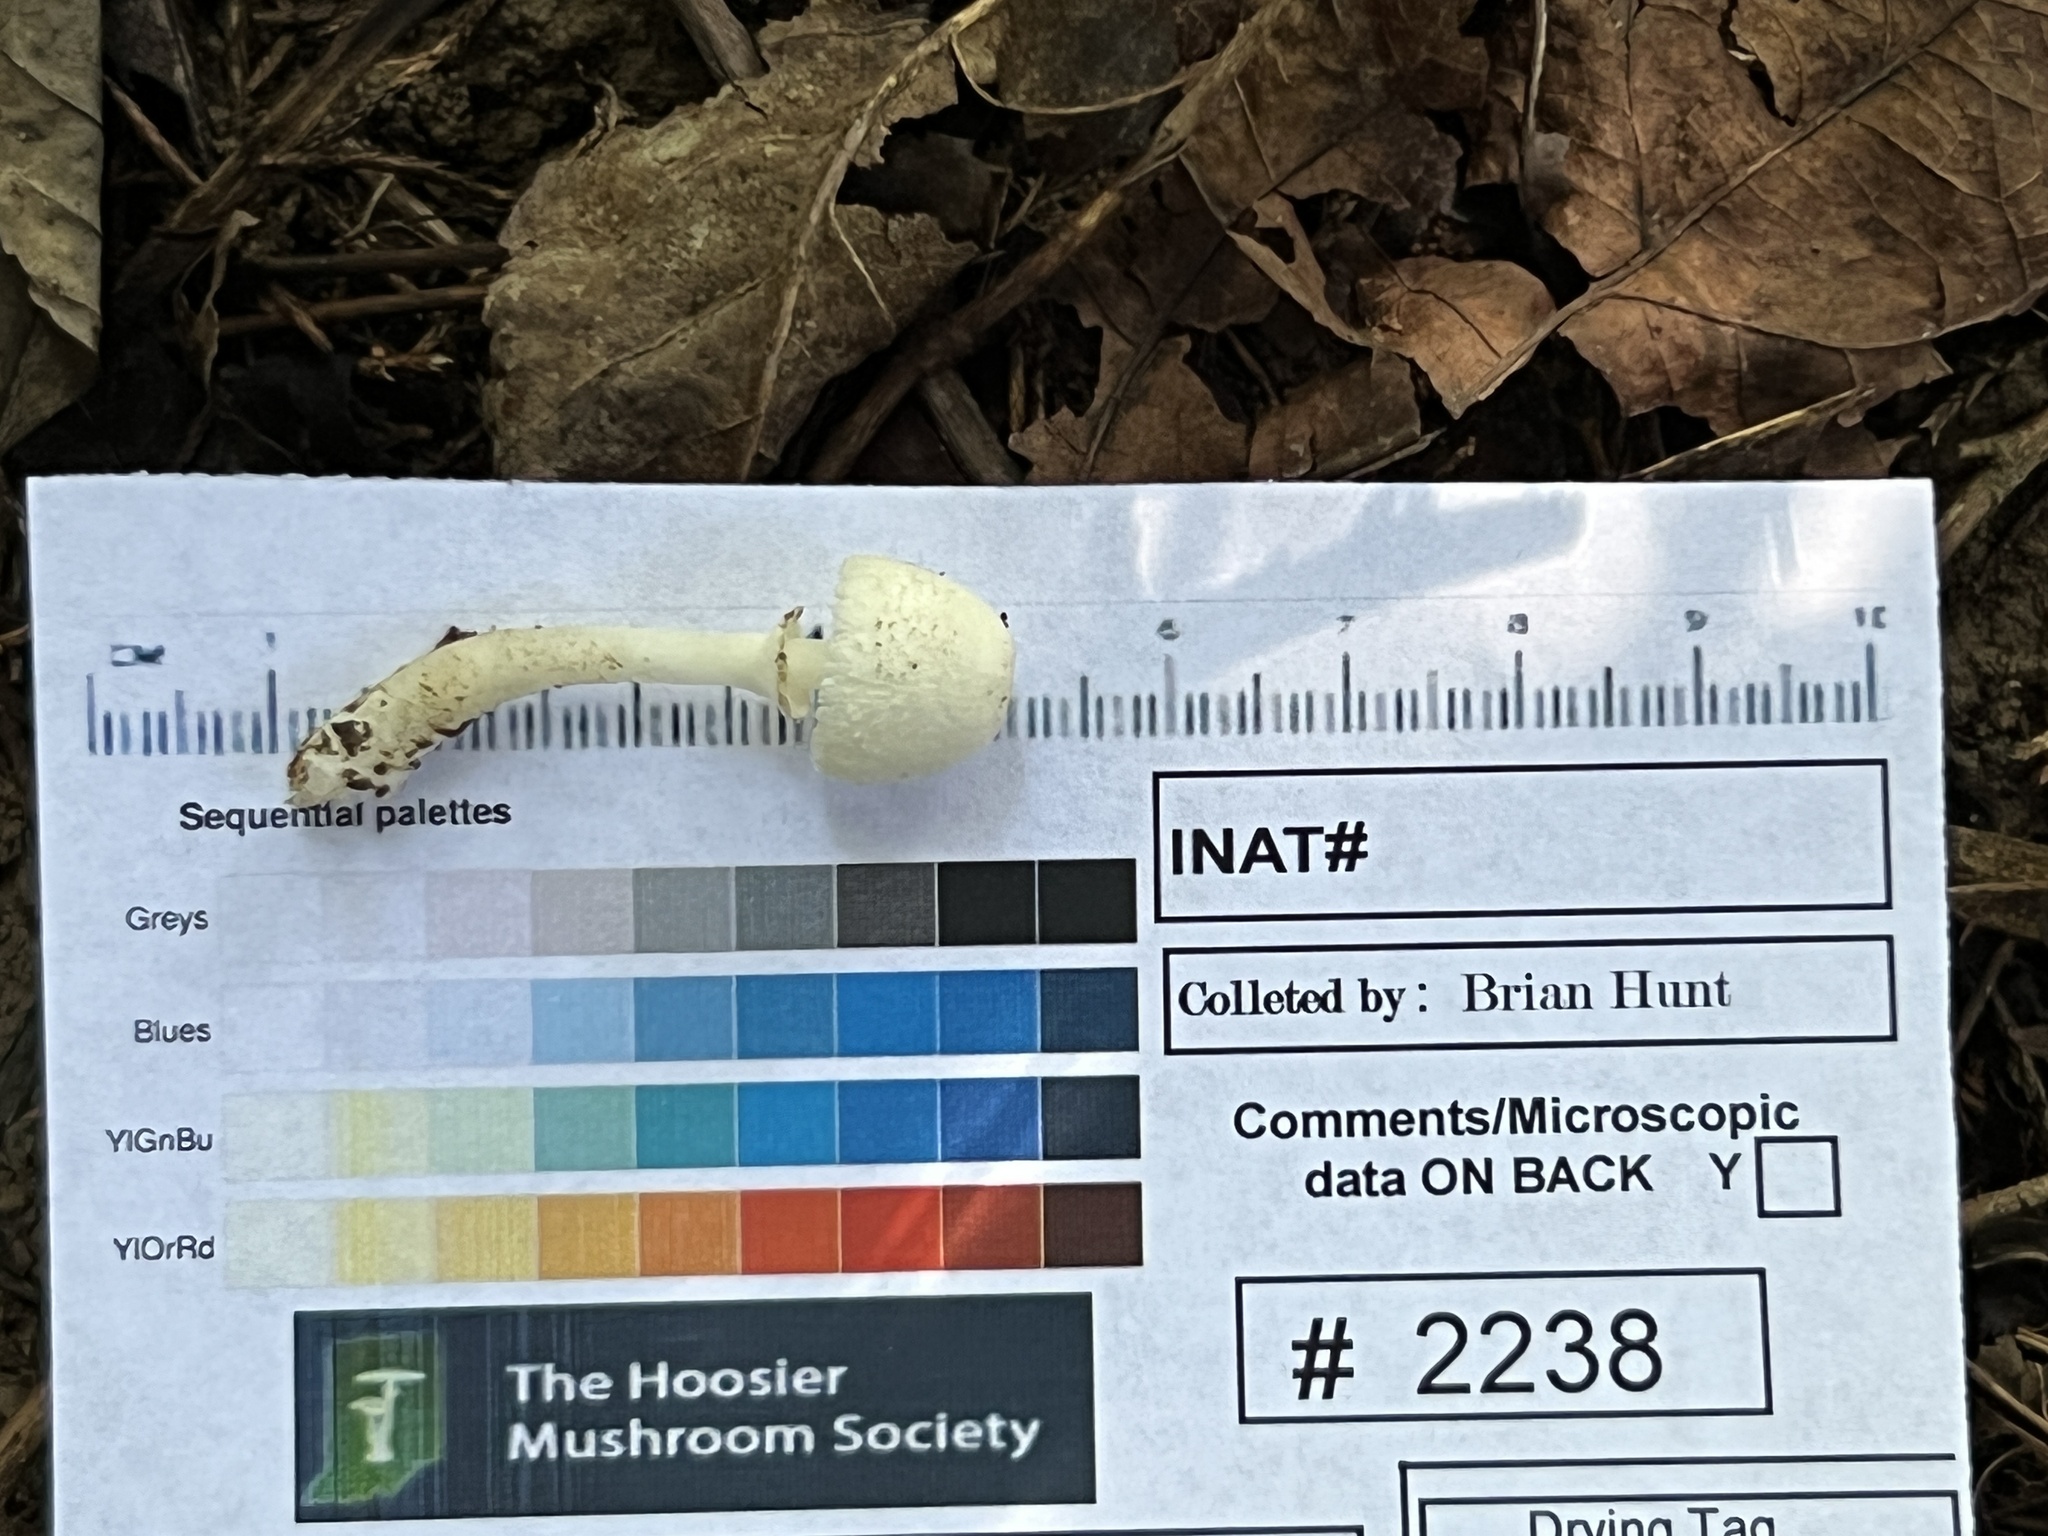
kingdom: Fungi
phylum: Basidiomycota
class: Agaricomycetes
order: Agaricales
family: Agaricaceae
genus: Leucocoprinus
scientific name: Leucocoprinus cepistipes
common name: Onion-stalk parasol
